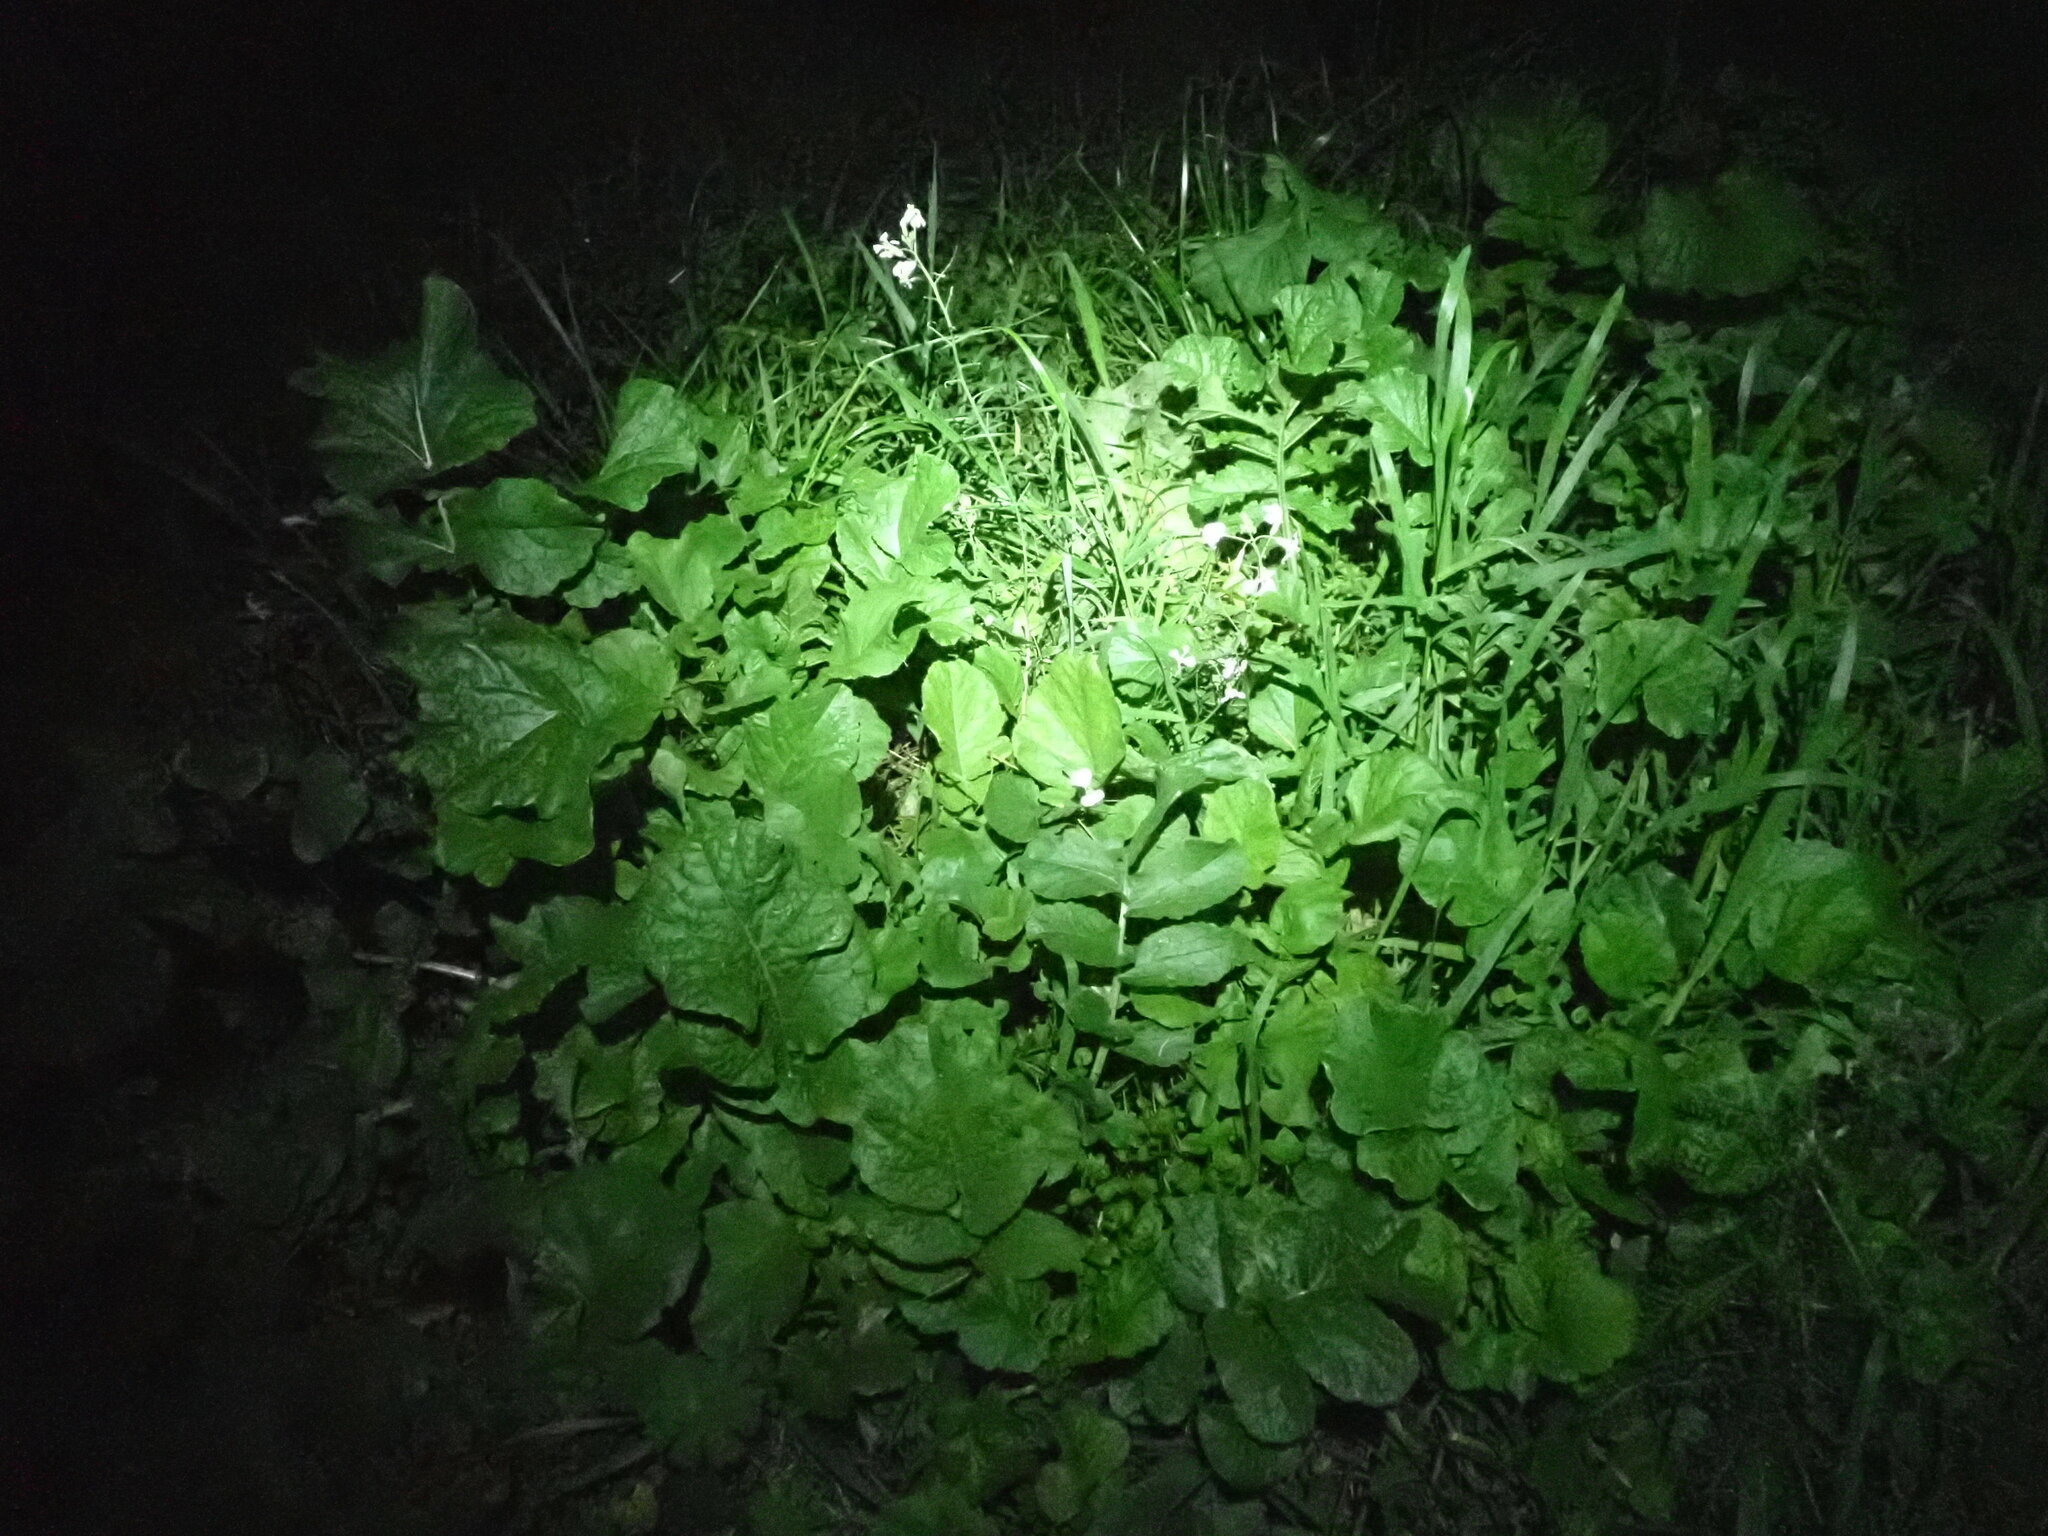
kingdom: Plantae
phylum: Tracheophyta
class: Magnoliopsida
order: Brassicales
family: Brassicaceae
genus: Raphanus
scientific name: Raphanus raphanistrum
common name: Wild radish
